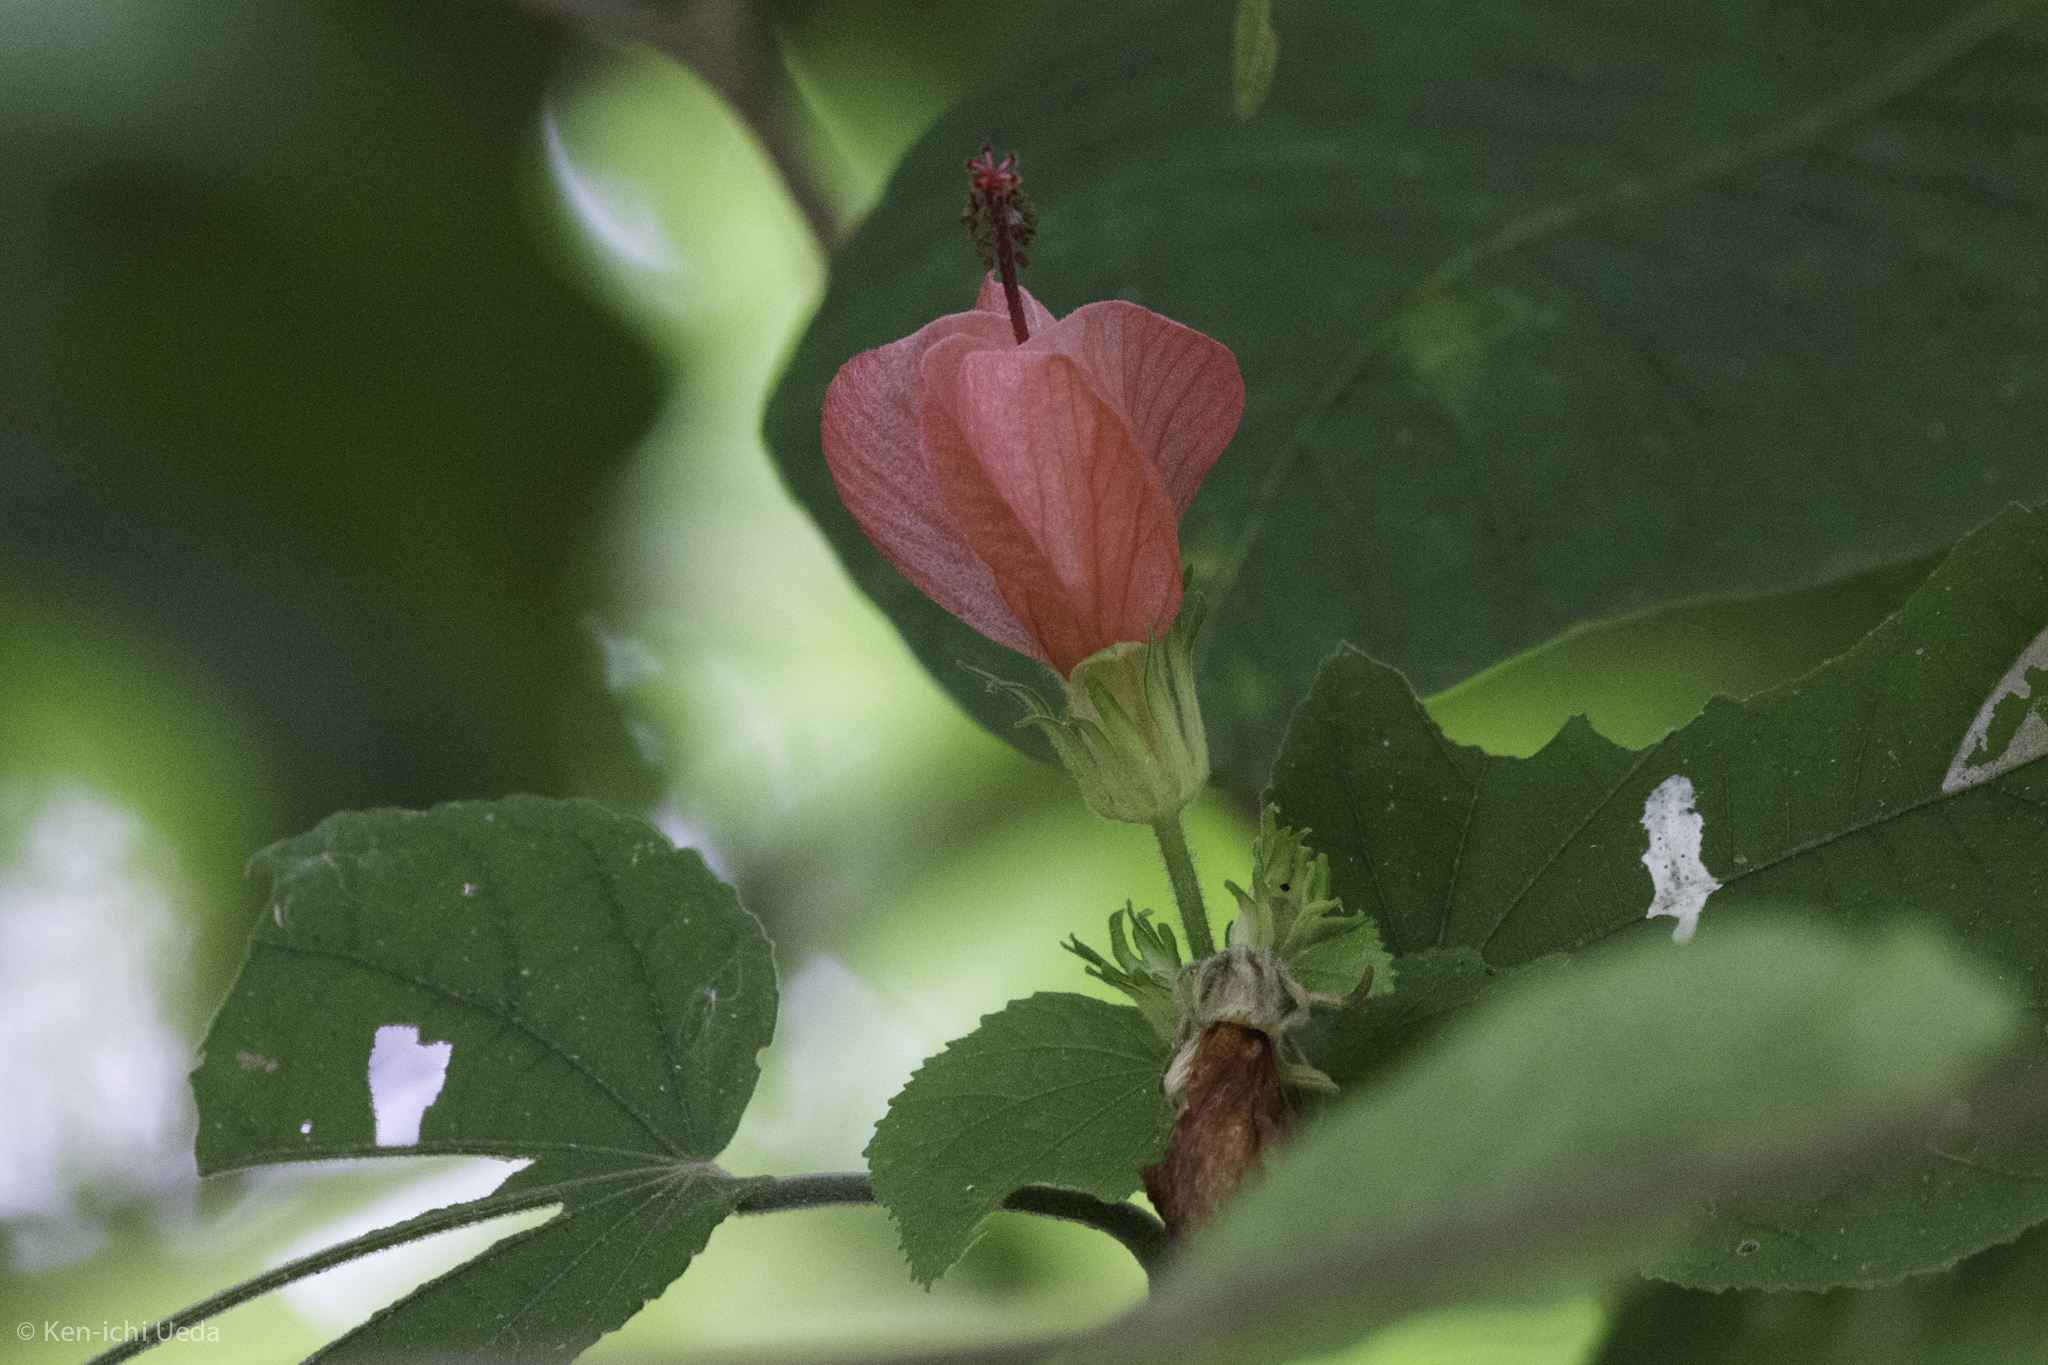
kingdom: Plantae
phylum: Tracheophyta
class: Magnoliopsida
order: Malvales
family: Malvaceae
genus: Malvaviscus
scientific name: Malvaviscus arboreus
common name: Wax mallow
